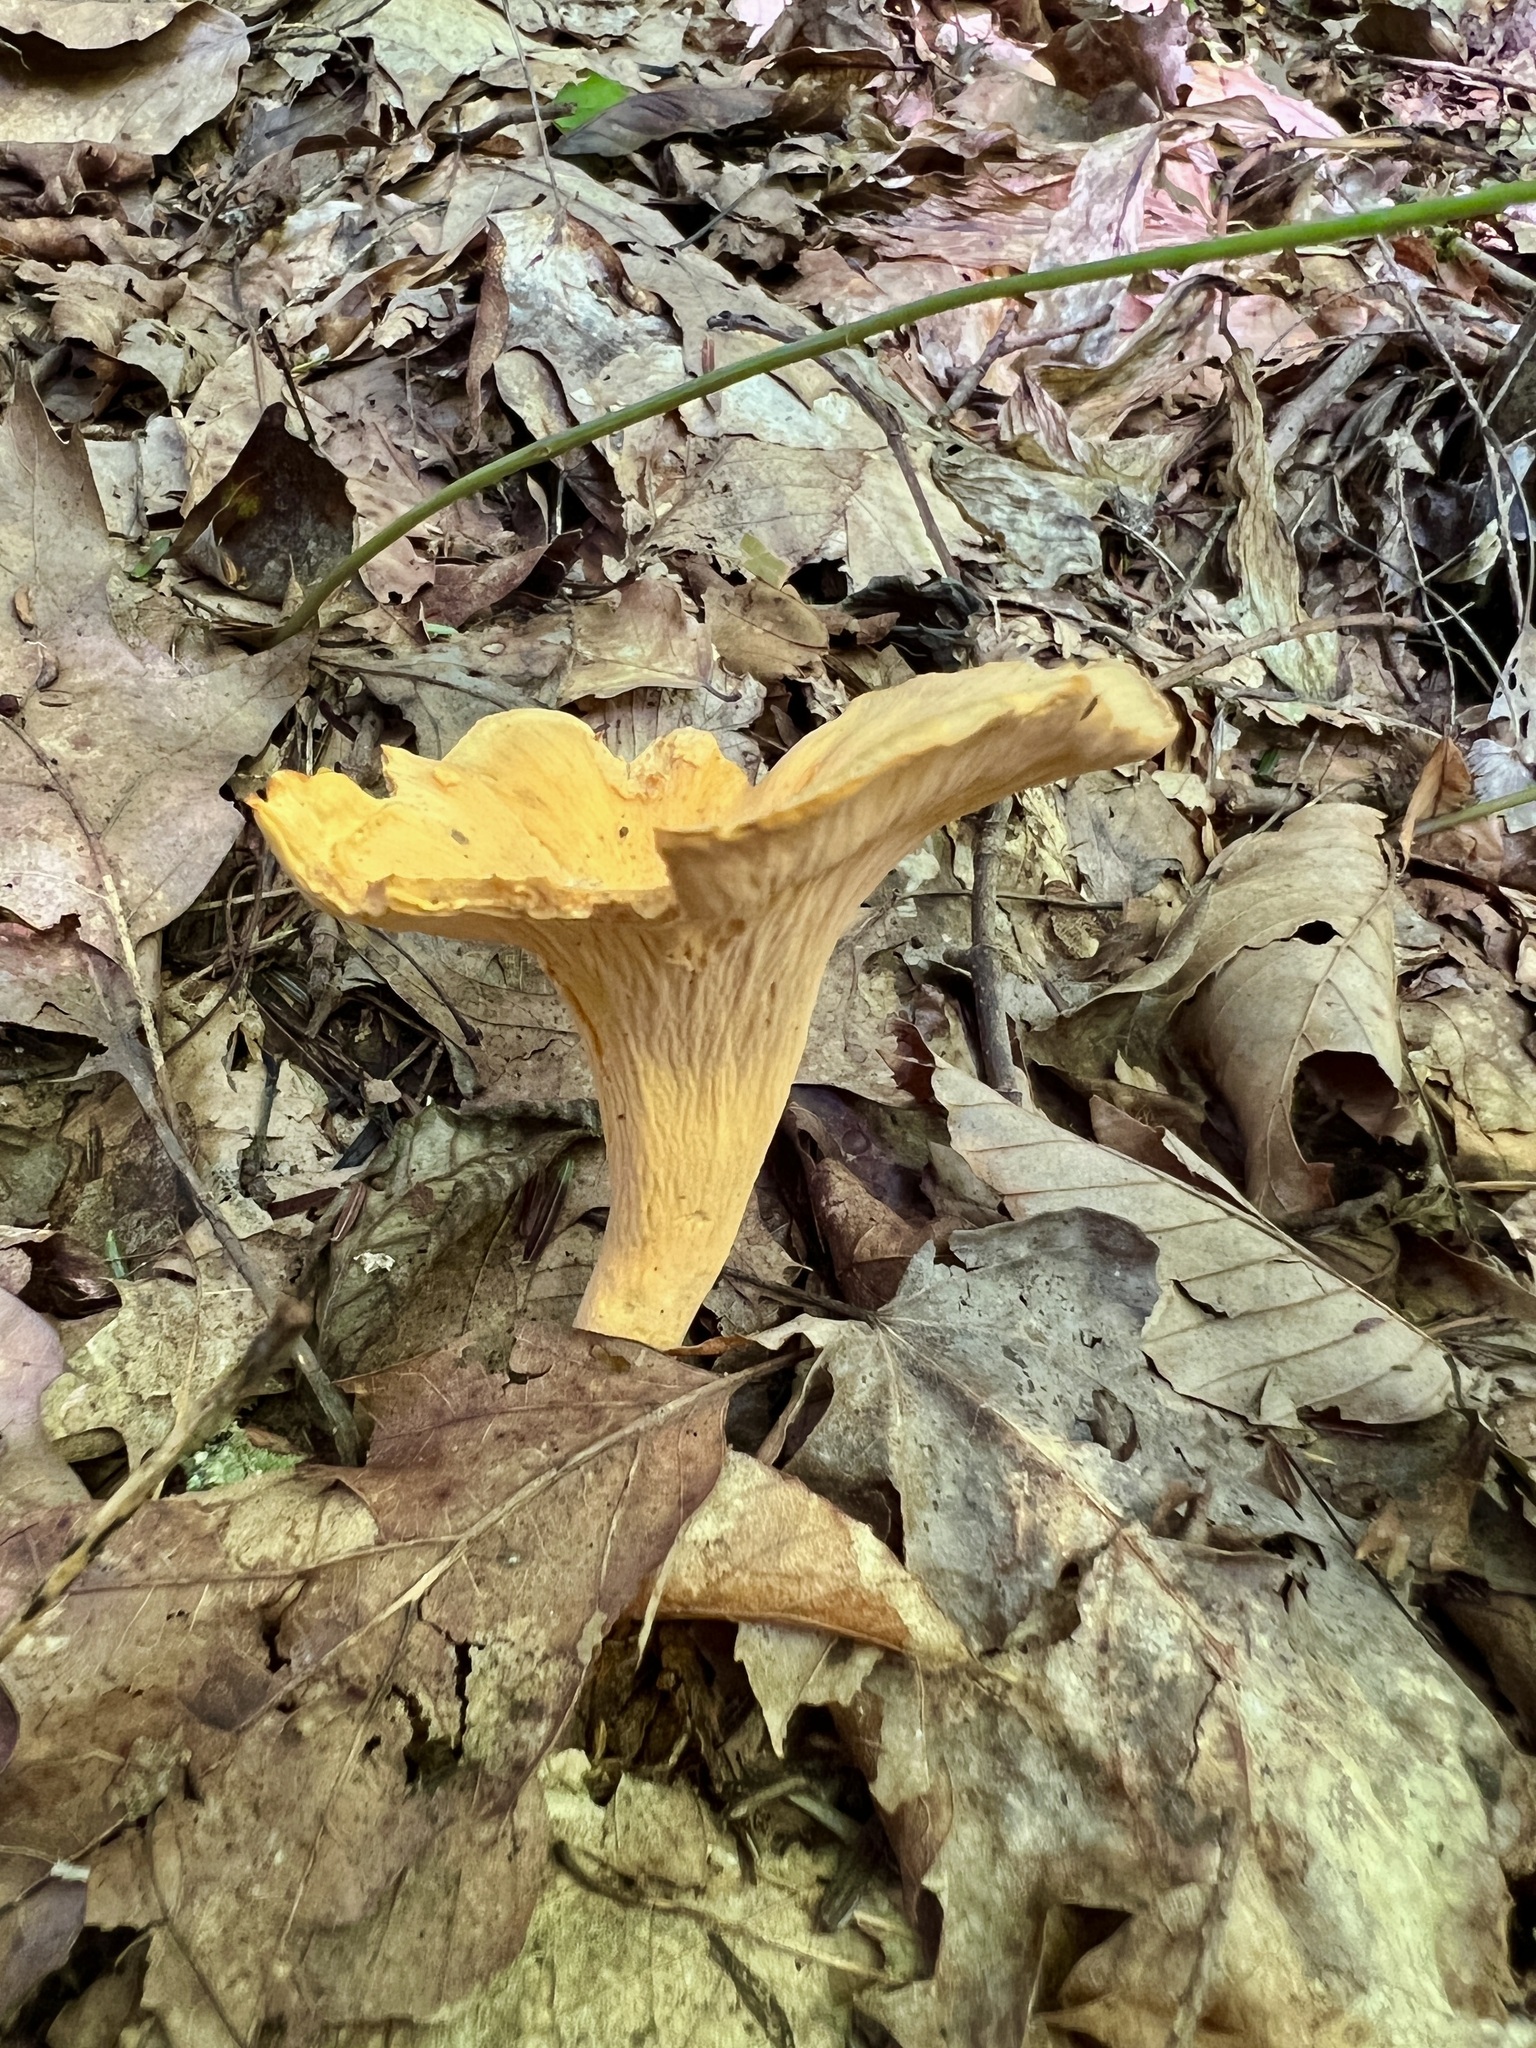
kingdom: Fungi
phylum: Basidiomycota
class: Agaricomycetes
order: Cantharellales
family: Hydnaceae
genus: Cantharellus
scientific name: Cantharellus lateritius
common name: Smooth chanterelle
